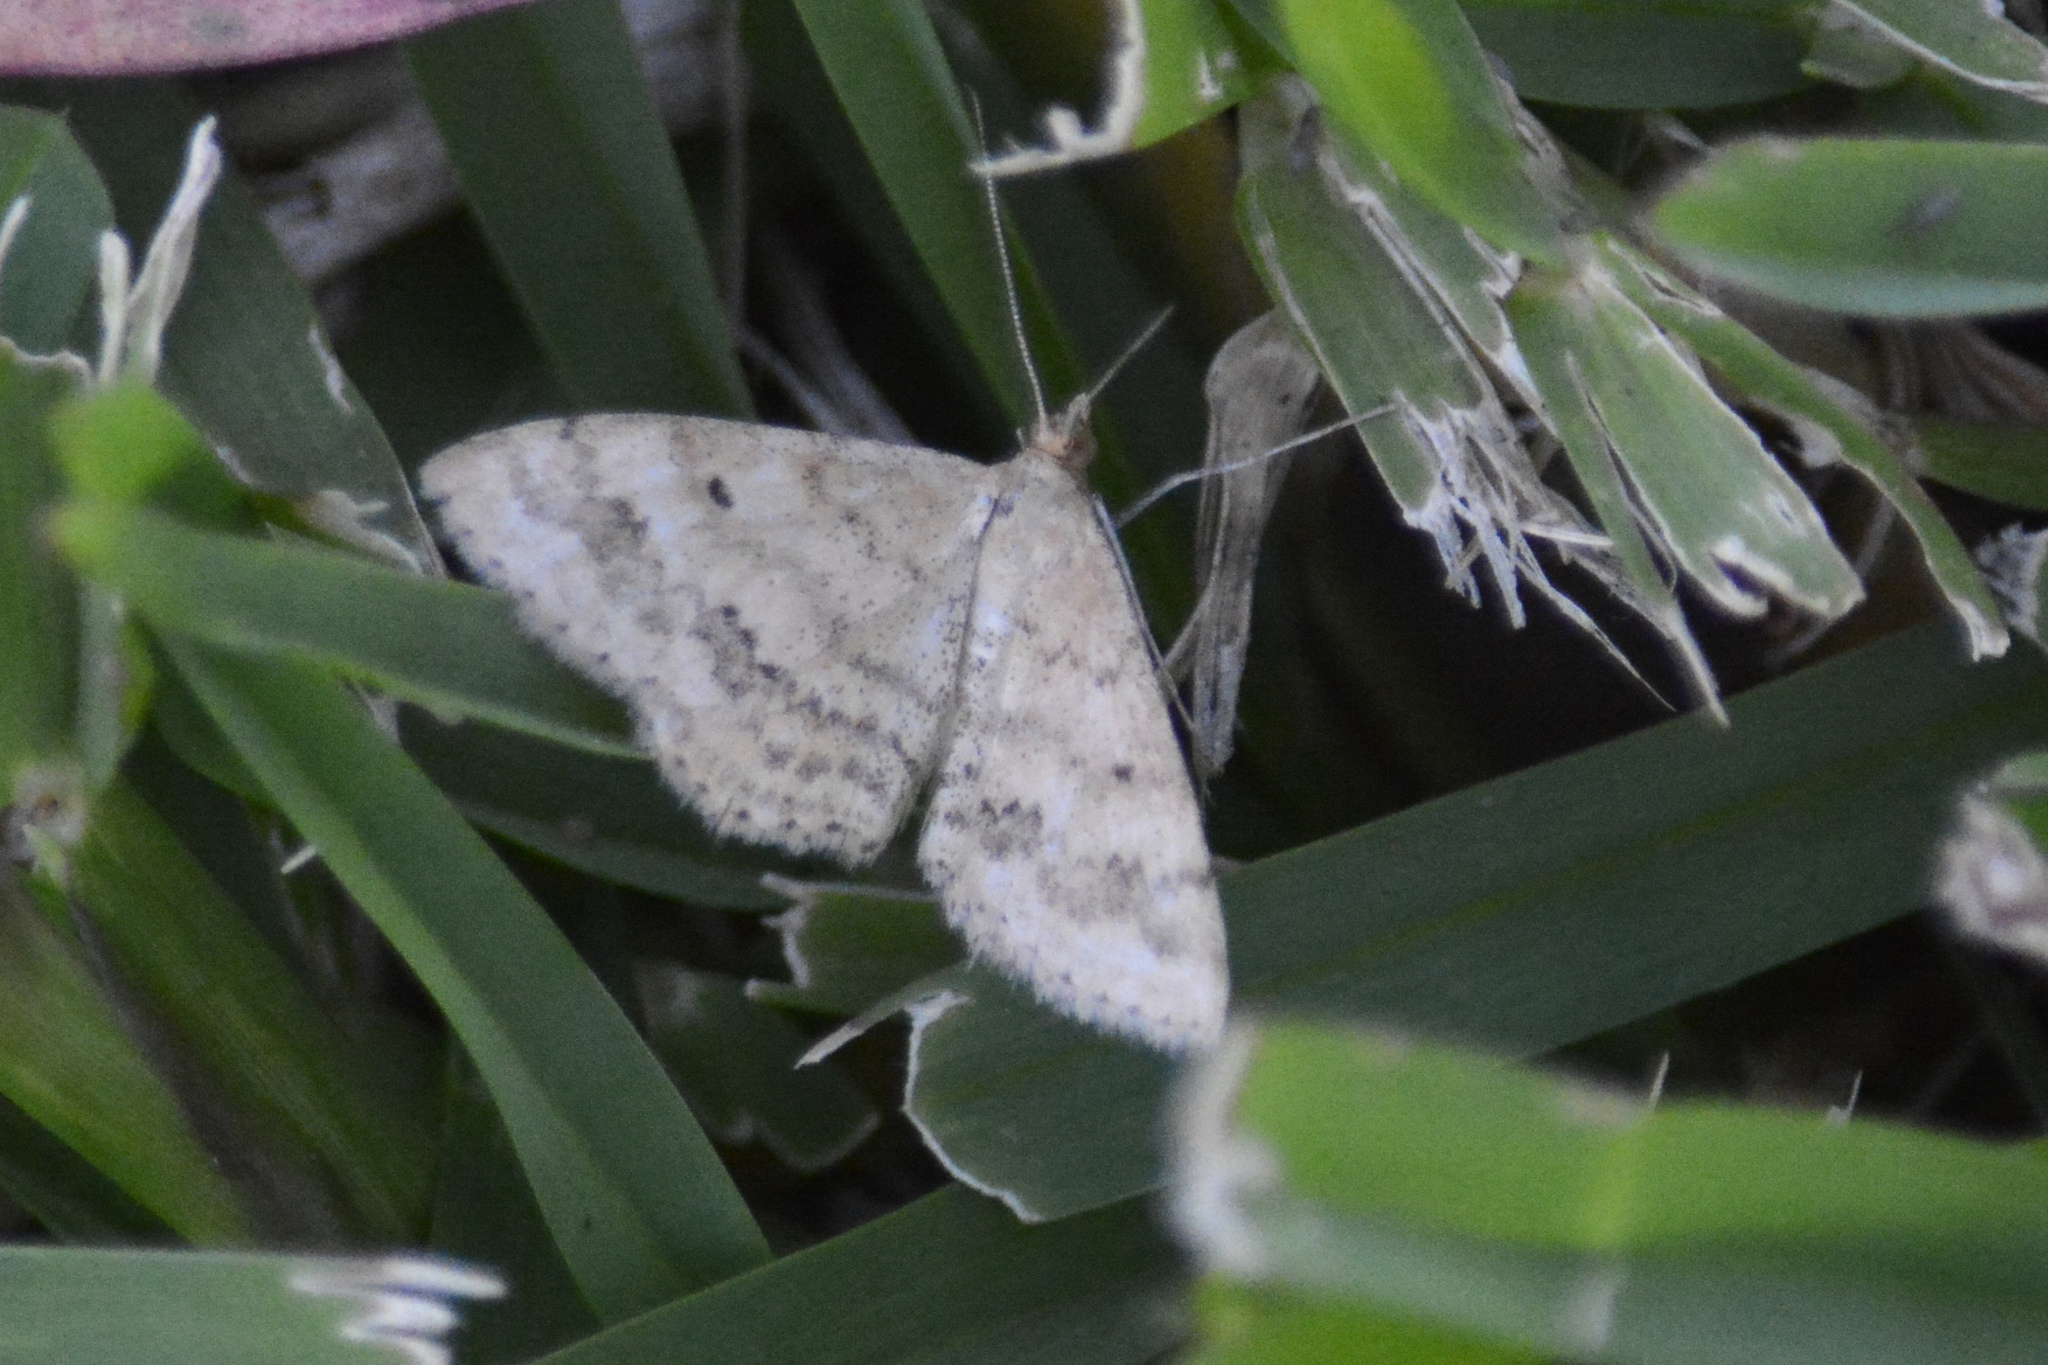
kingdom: Animalia
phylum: Arthropoda
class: Insecta
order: Lepidoptera
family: Geometridae
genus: Scopula
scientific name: Scopula rubraria
